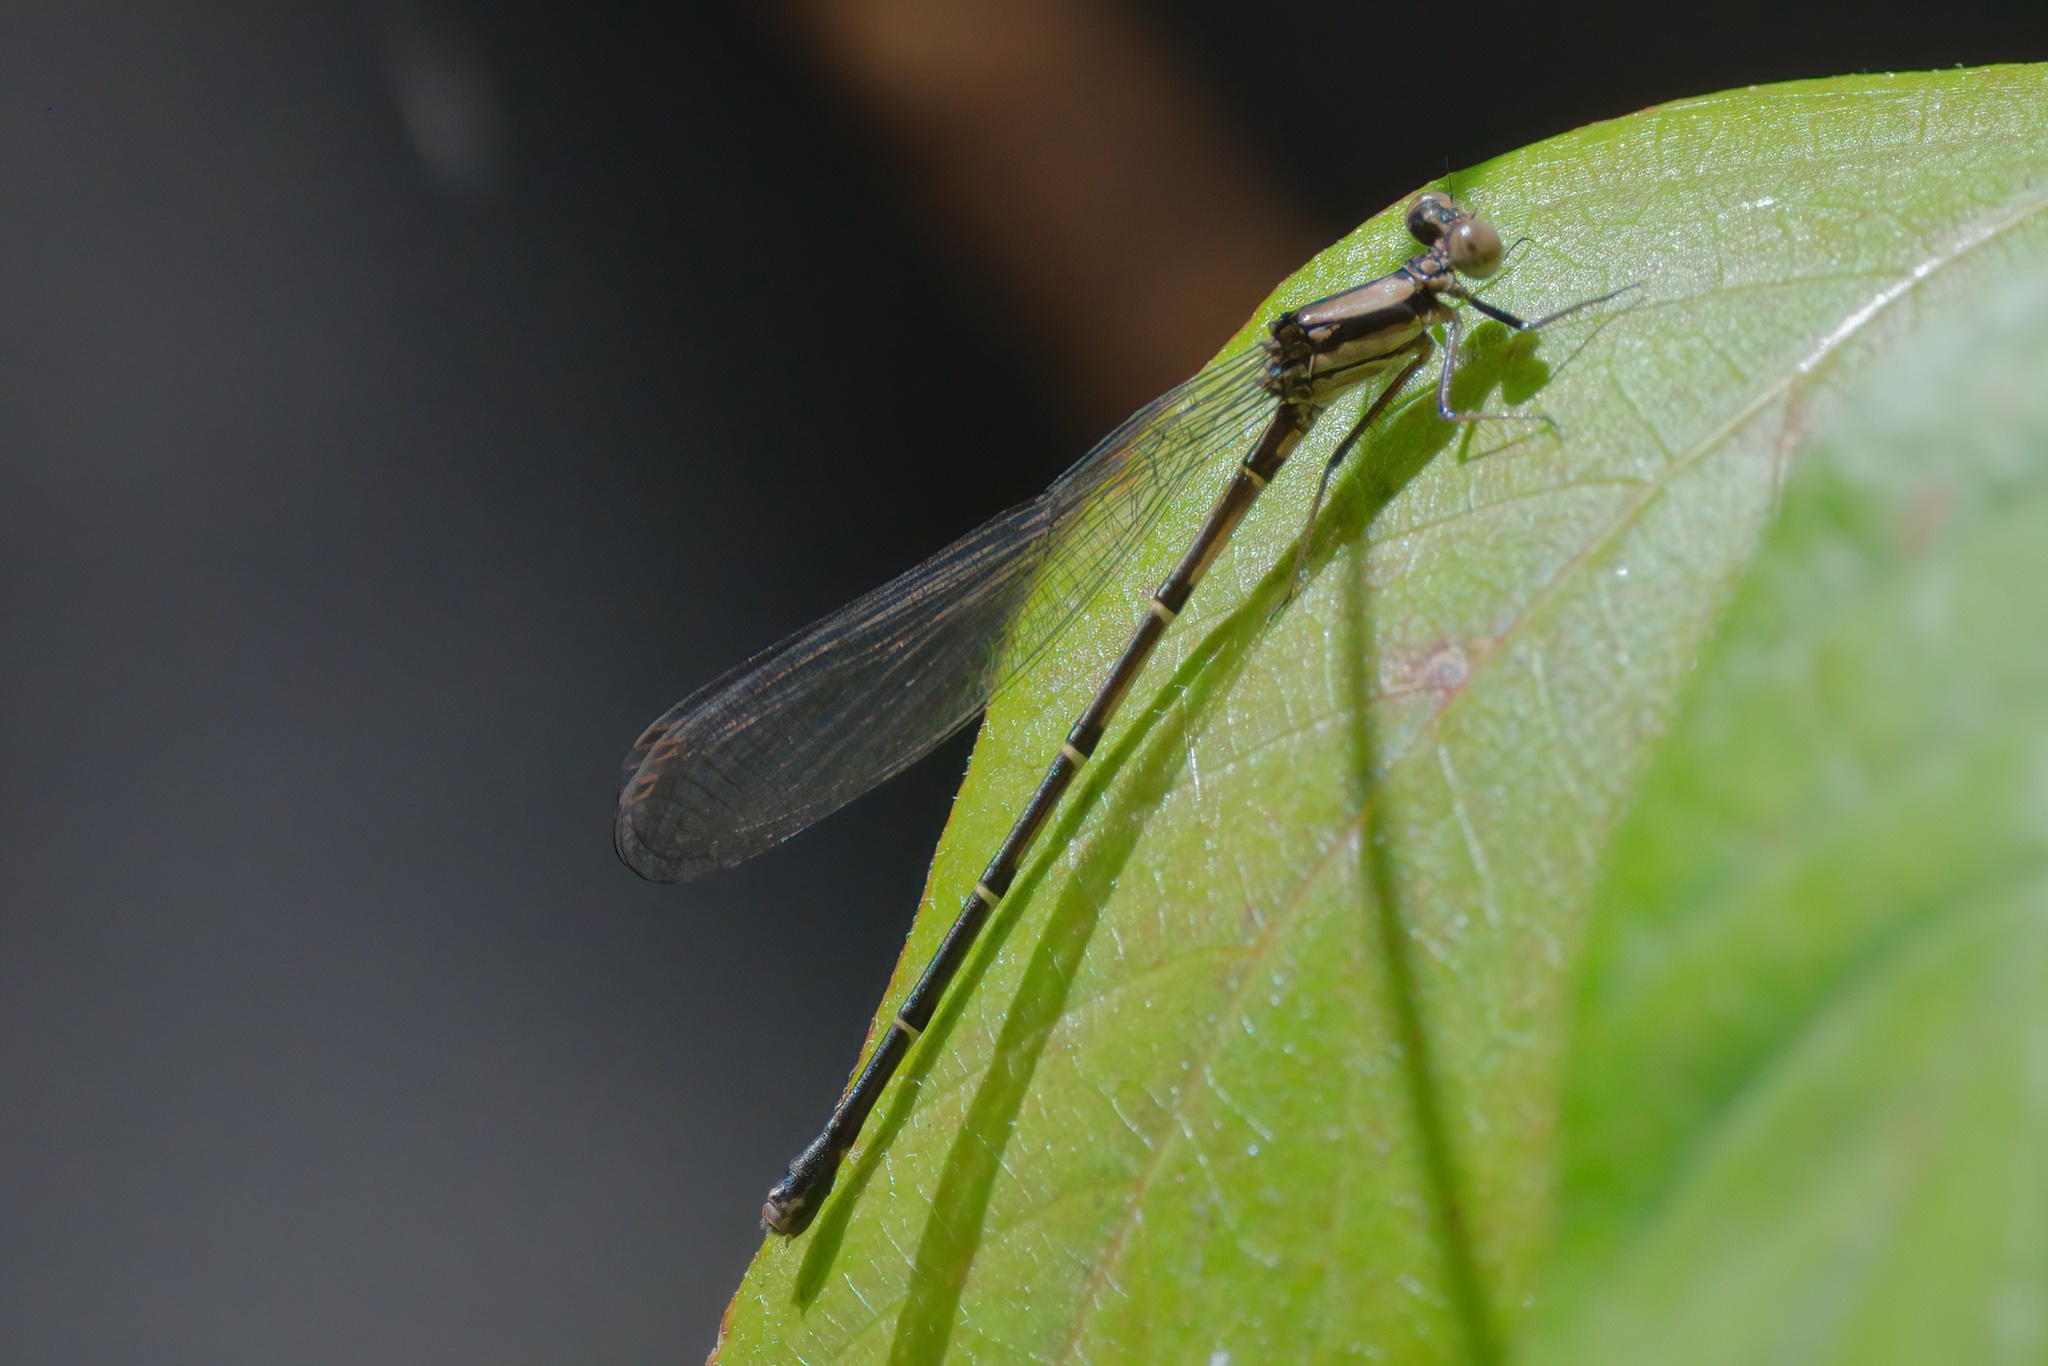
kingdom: Animalia
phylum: Arthropoda
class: Insecta
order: Odonata
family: Coenagrionidae
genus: Argia
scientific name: Argia tibialis
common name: Blue-tipped dancer
